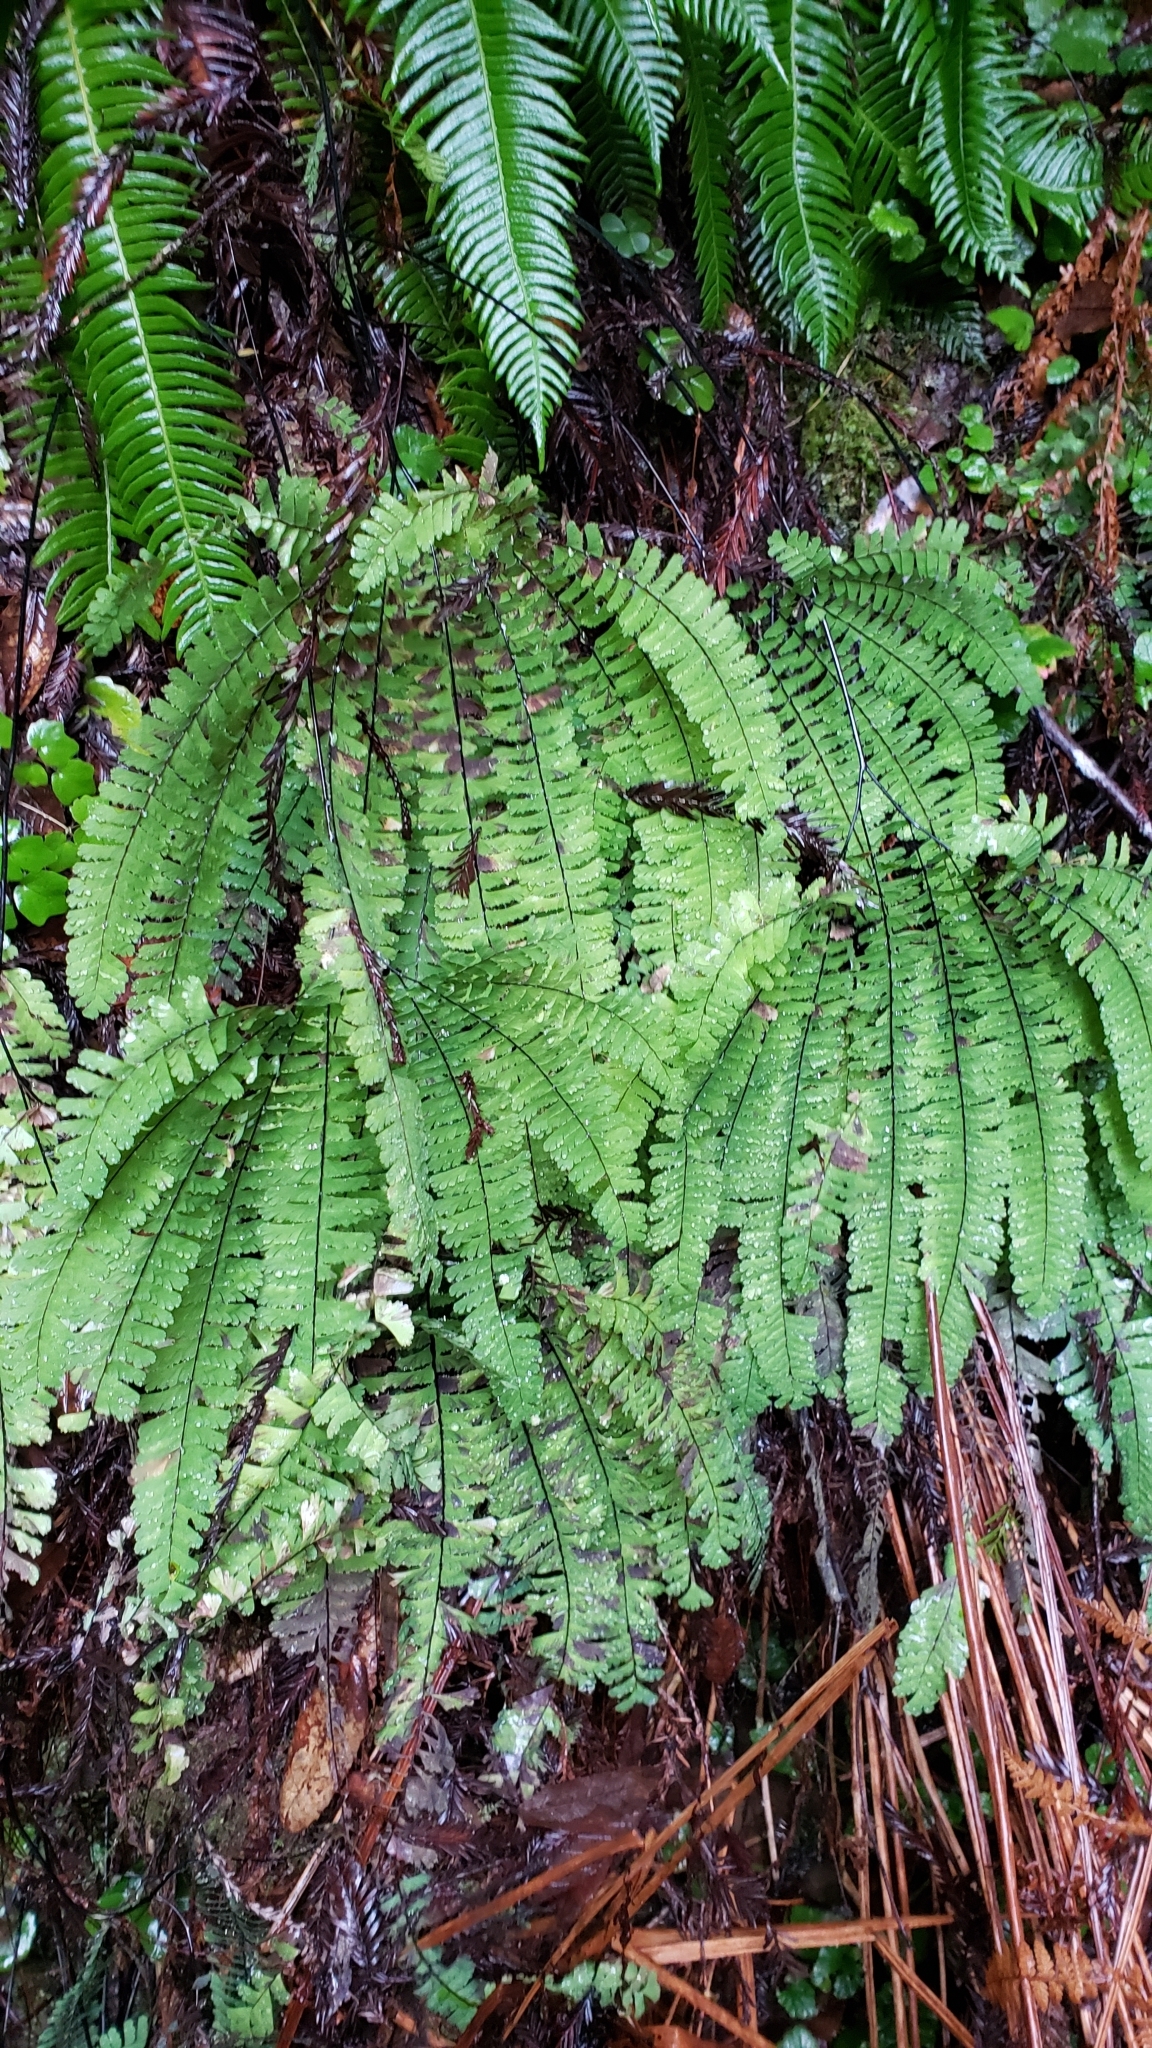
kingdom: Plantae
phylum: Tracheophyta
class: Polypodiopsida
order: Polypodiales
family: Pteridaceae
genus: Adiantum
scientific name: Adiantum aleuticum
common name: Aleutian maidenhair fern
